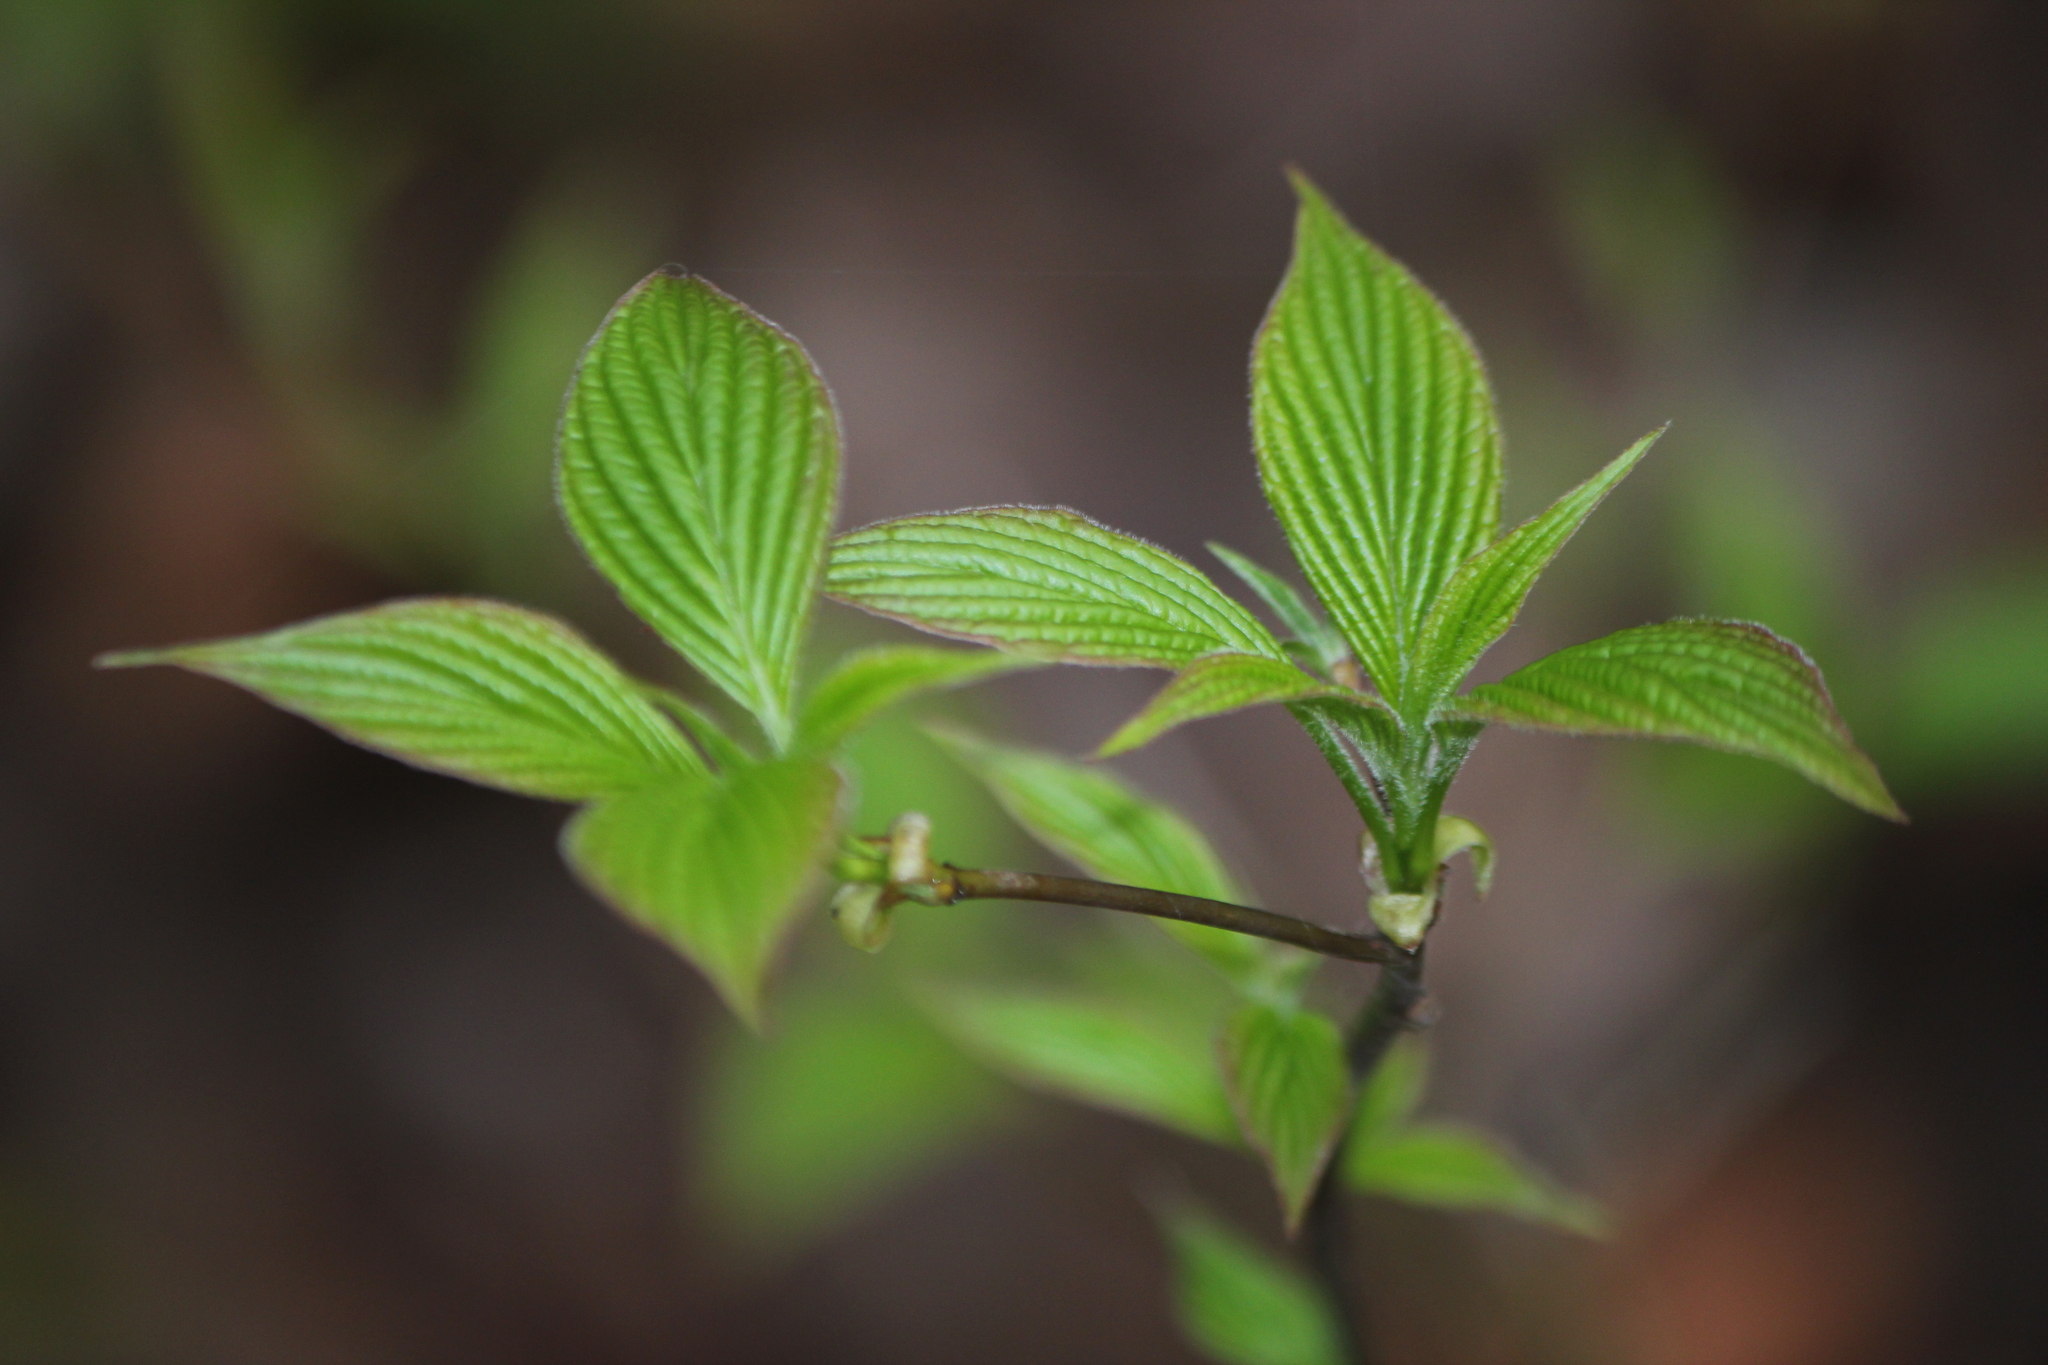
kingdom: Plantae
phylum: Tracheophyta
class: Magnoliopsida
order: Cornales
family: Cornaceae
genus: Cornus
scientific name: Cornus alternifolia
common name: Pagoda dogwood
